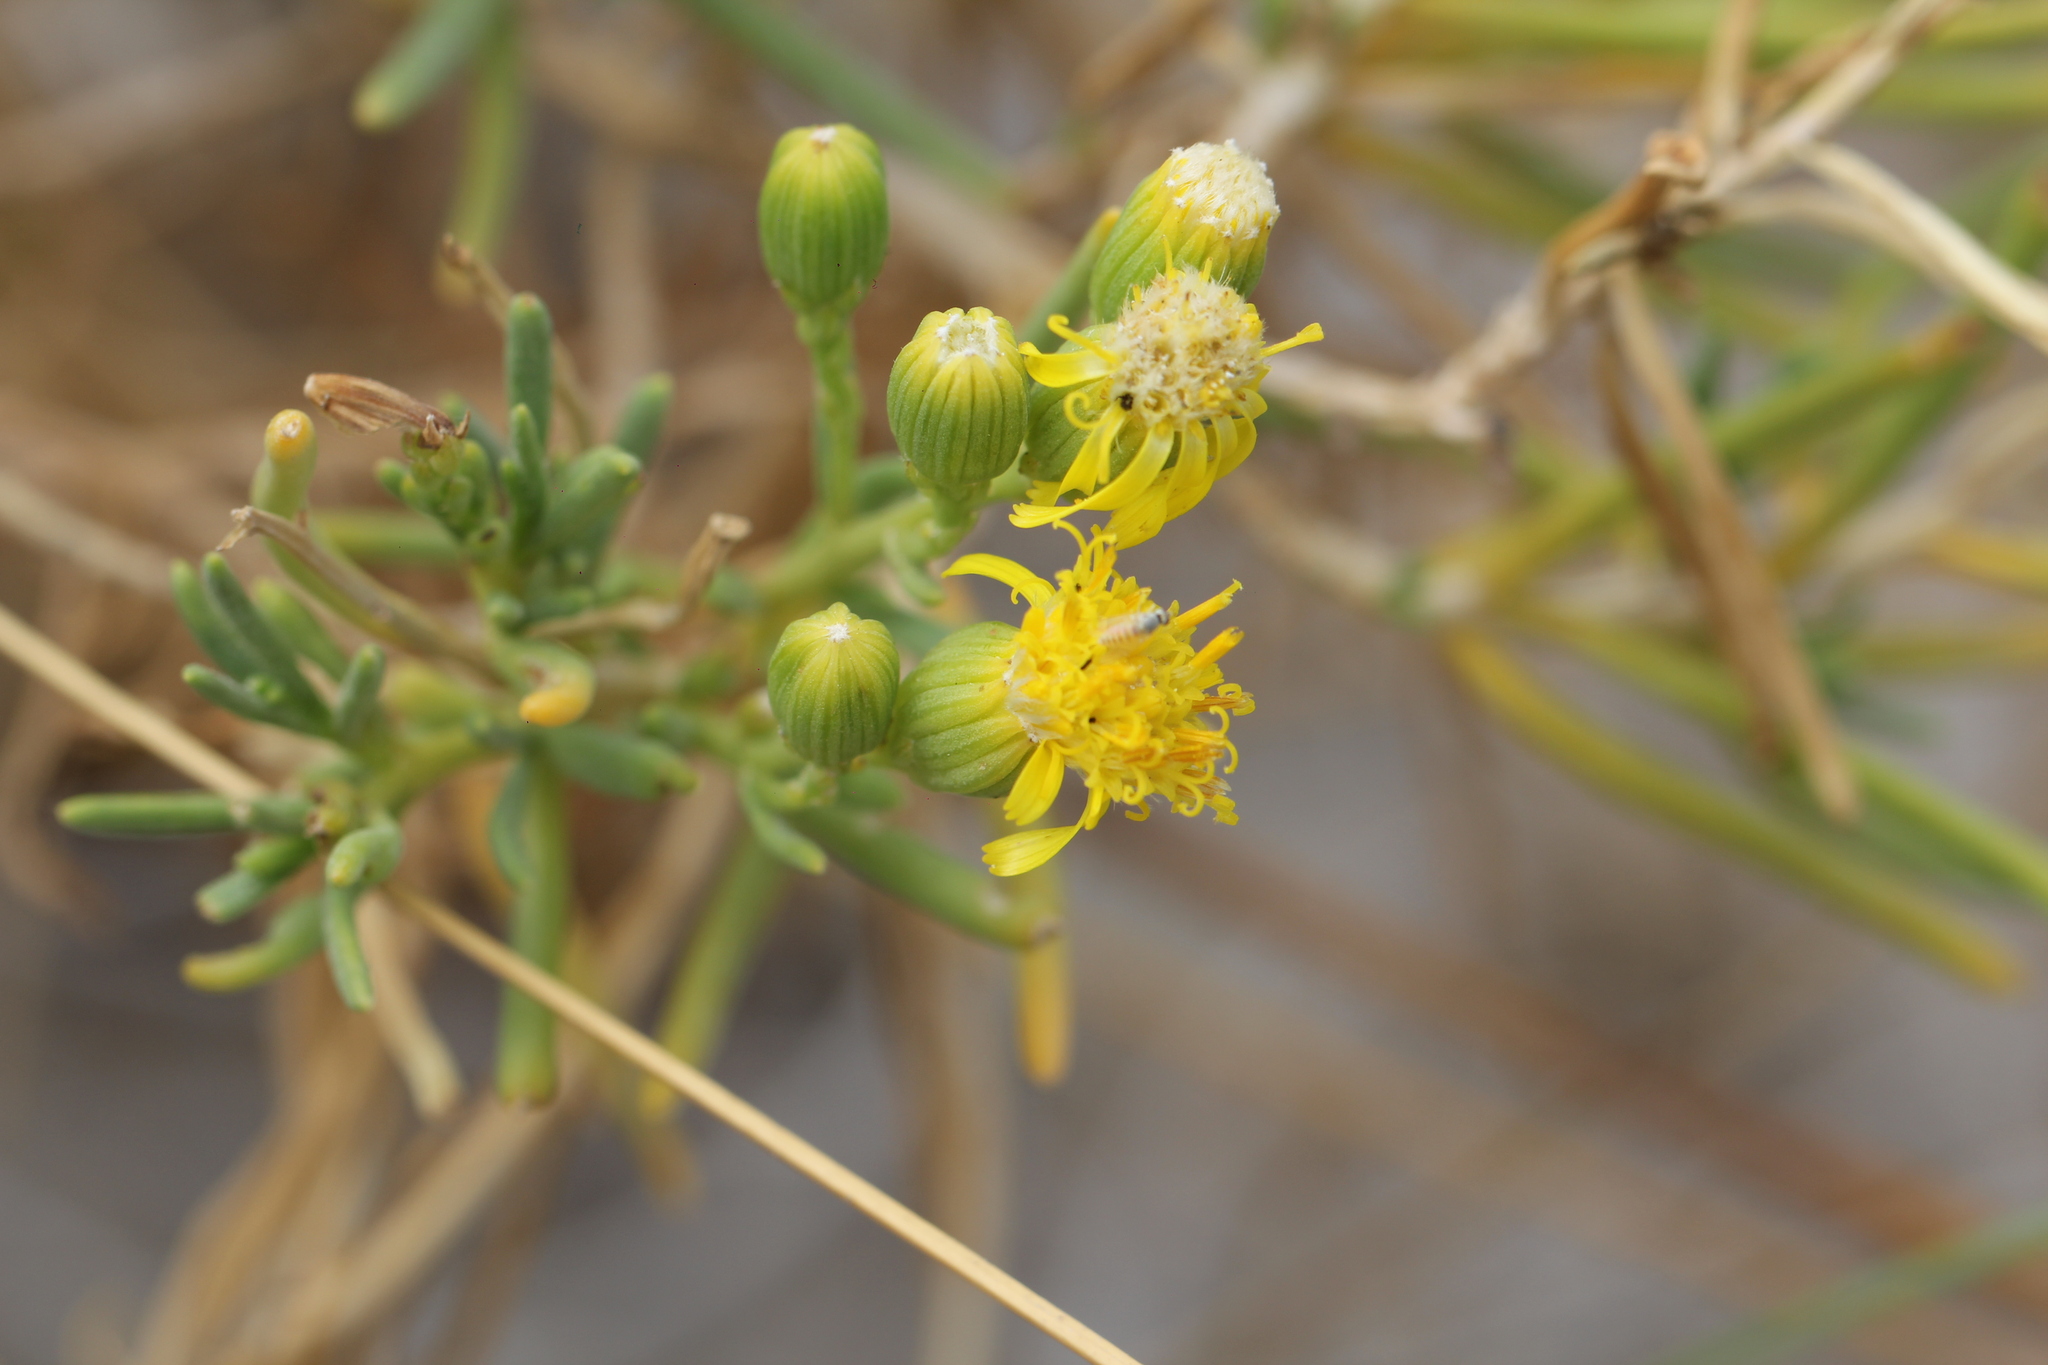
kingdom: Plantae
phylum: Tracheophyta
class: Magnoliopsida
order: Asterales
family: Asteraceae
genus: Senecio
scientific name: Senecio subulatus
